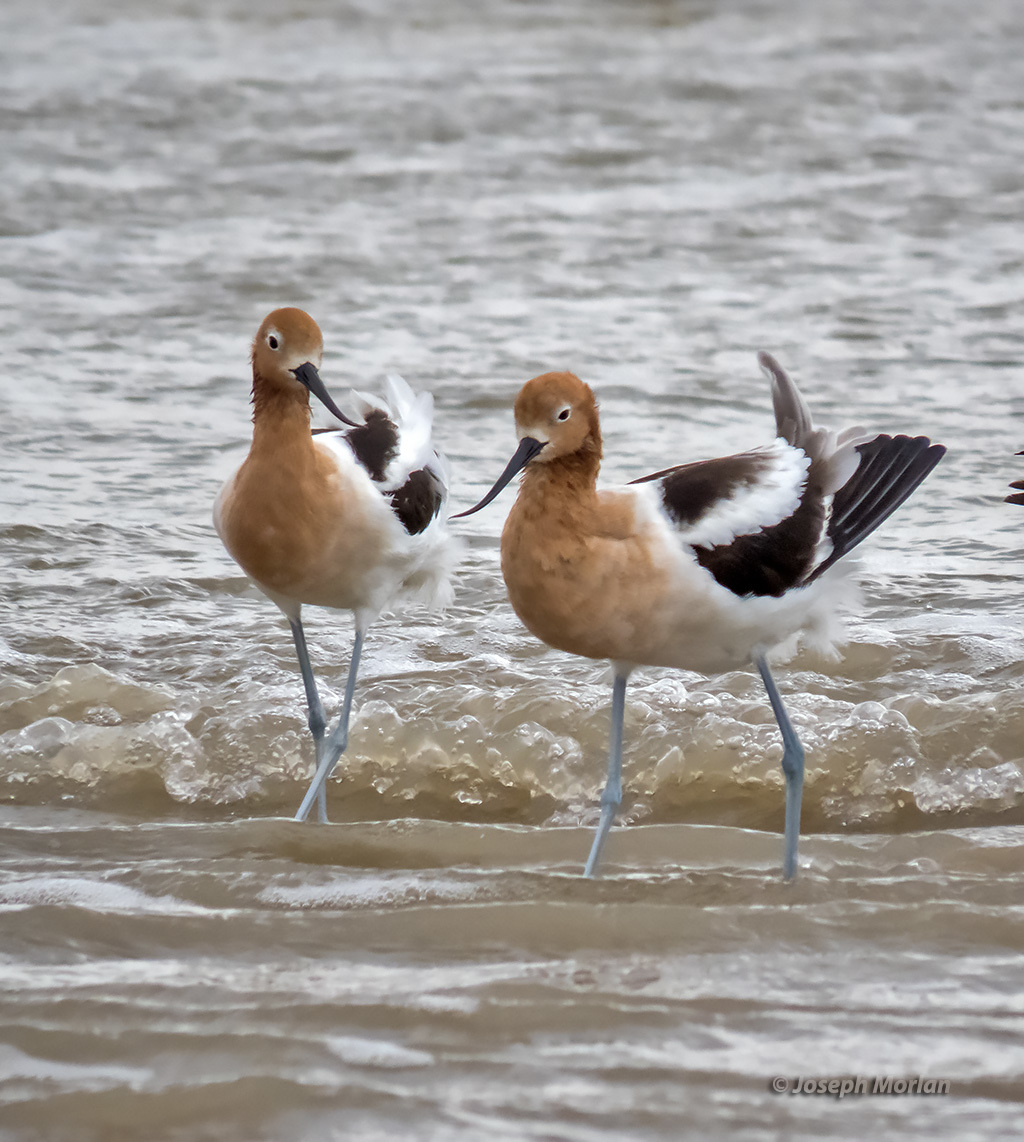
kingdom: Animalia
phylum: Chordata
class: Aves
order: Charadriiformes
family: Recurvirostridae
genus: Recurvirostra
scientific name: Recurvirostra americana
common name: American avocet
